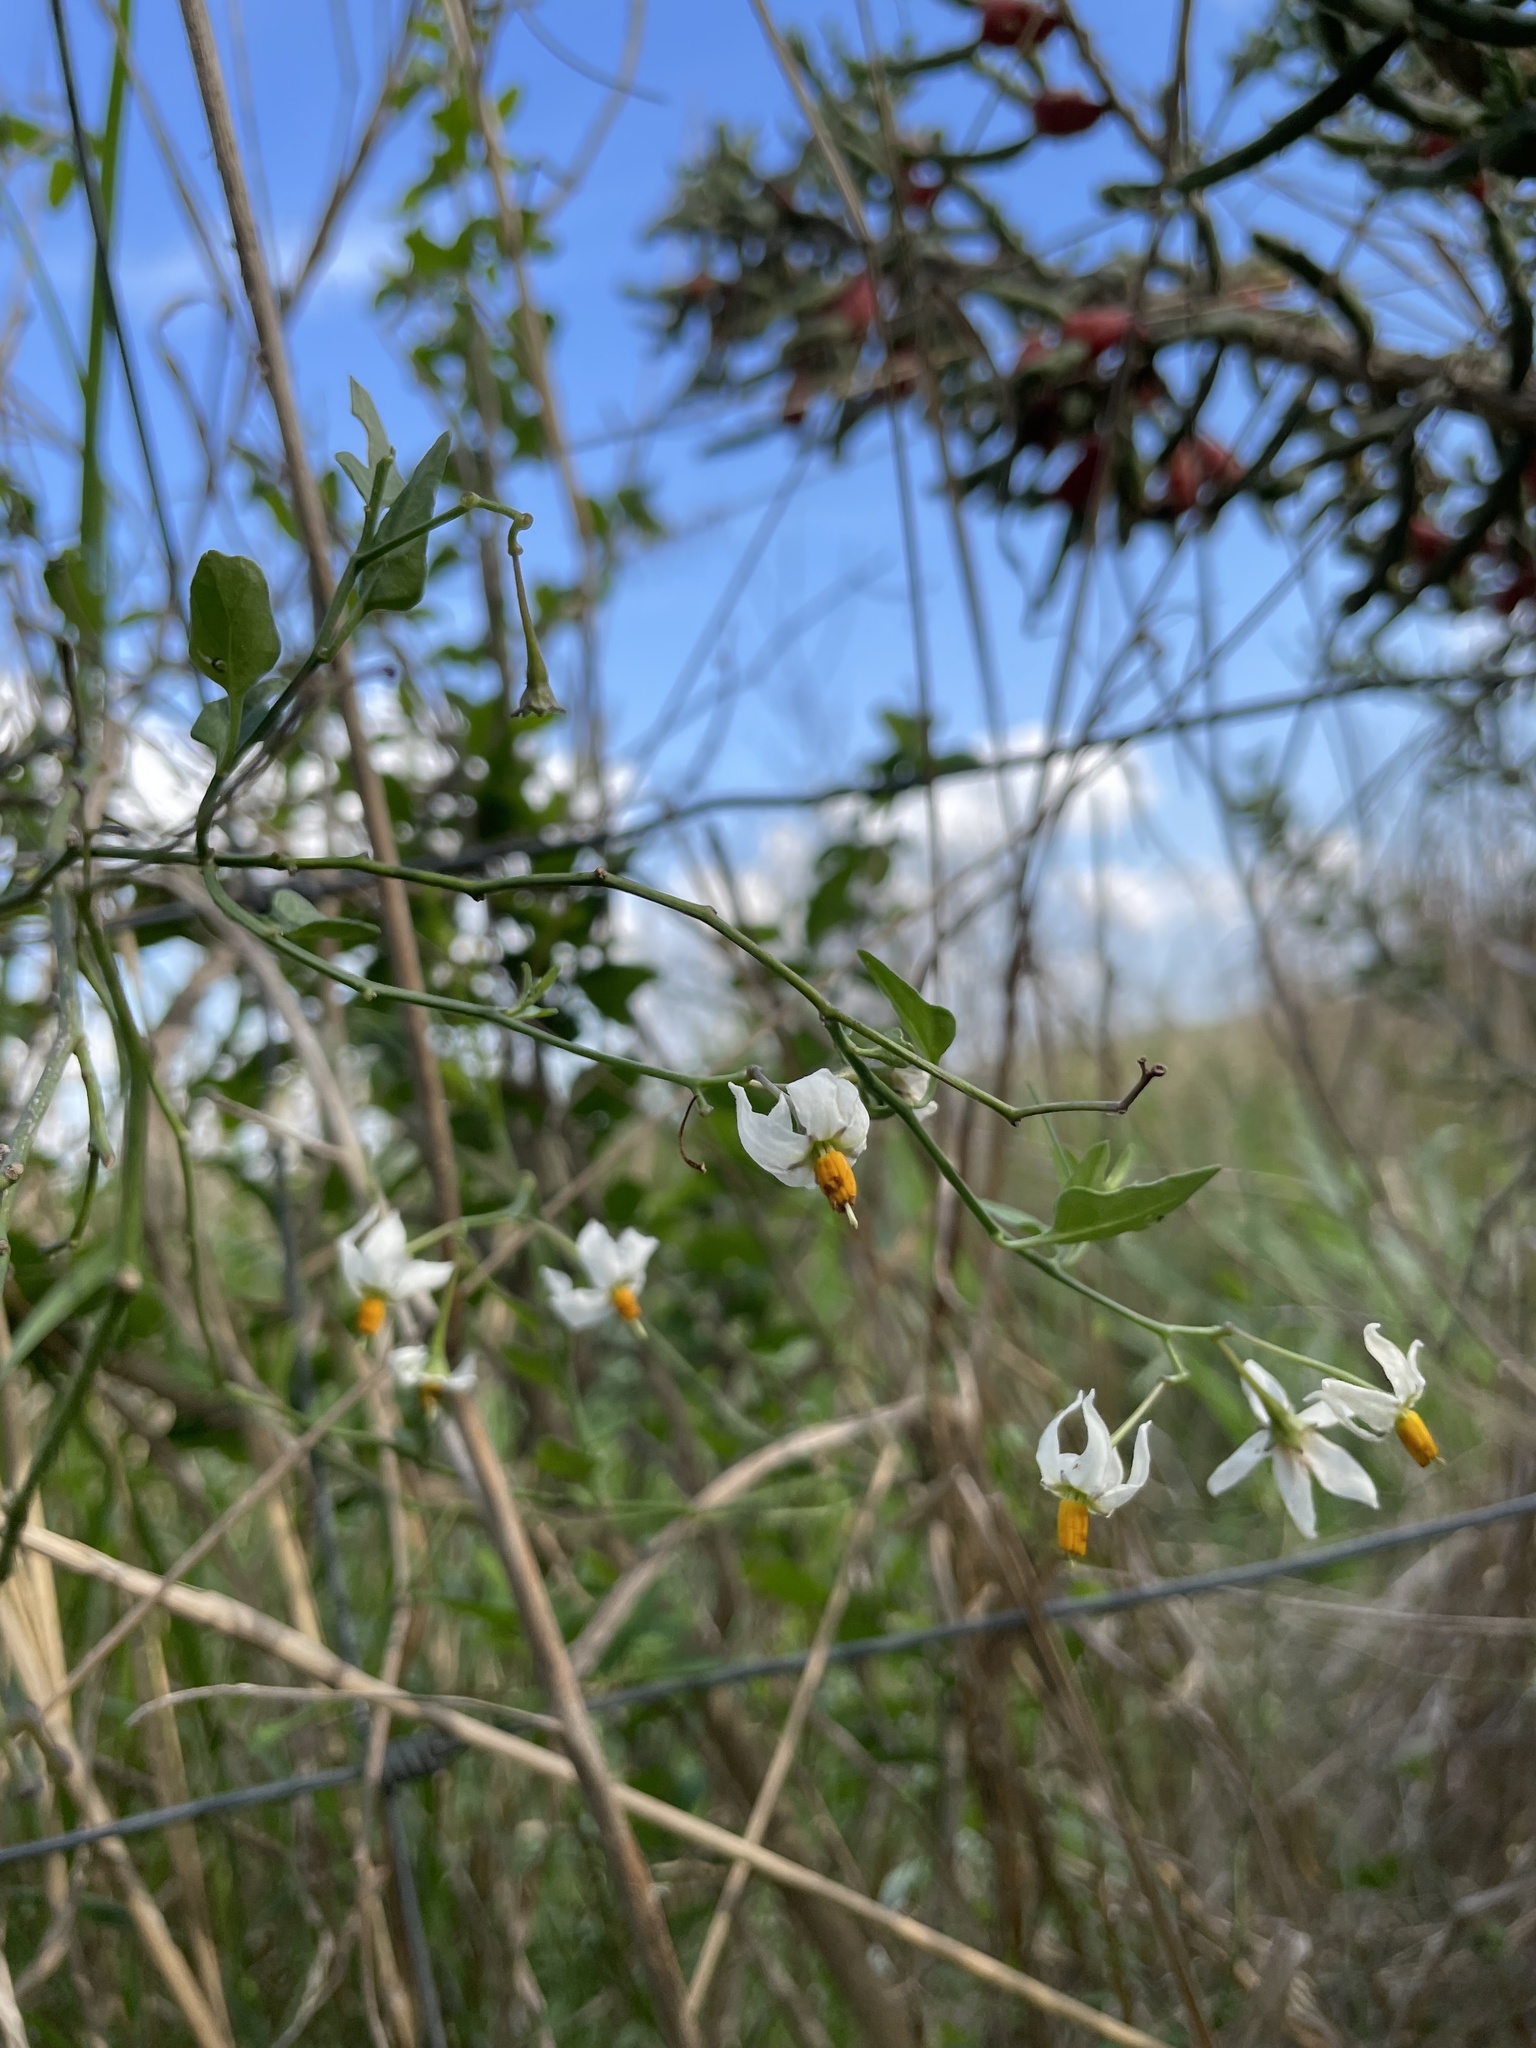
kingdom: Plantae
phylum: Tracheophyta
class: Magnoliopsida
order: Solanales
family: Solanaceae
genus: Solanum
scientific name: Solanum triquetrum
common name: Texas nightshade
